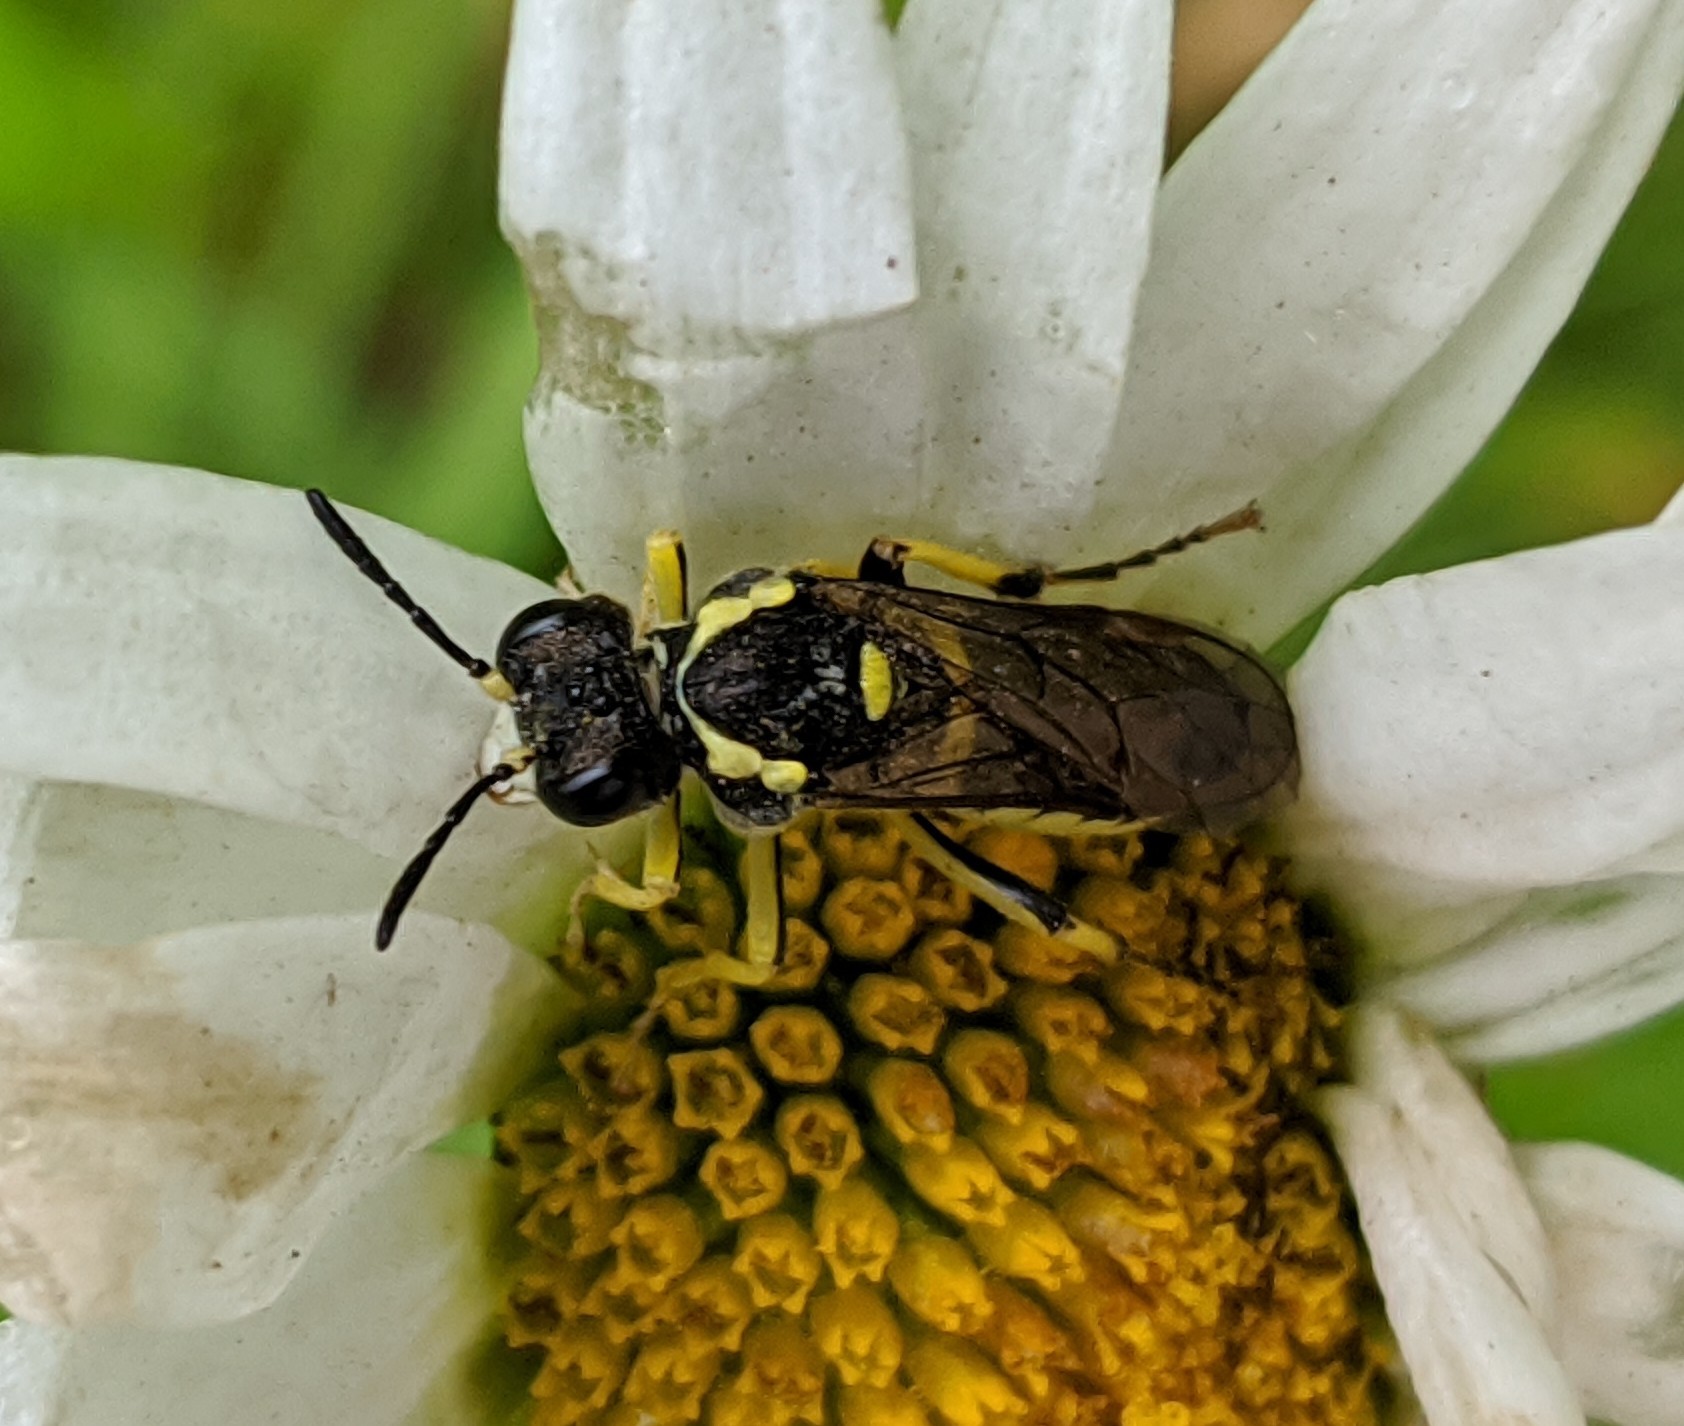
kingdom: Animalia
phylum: Arthropoda
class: Insecta
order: Hymenoptera
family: Tenthredinidae
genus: Tenthredo
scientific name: Tenthredo notha
